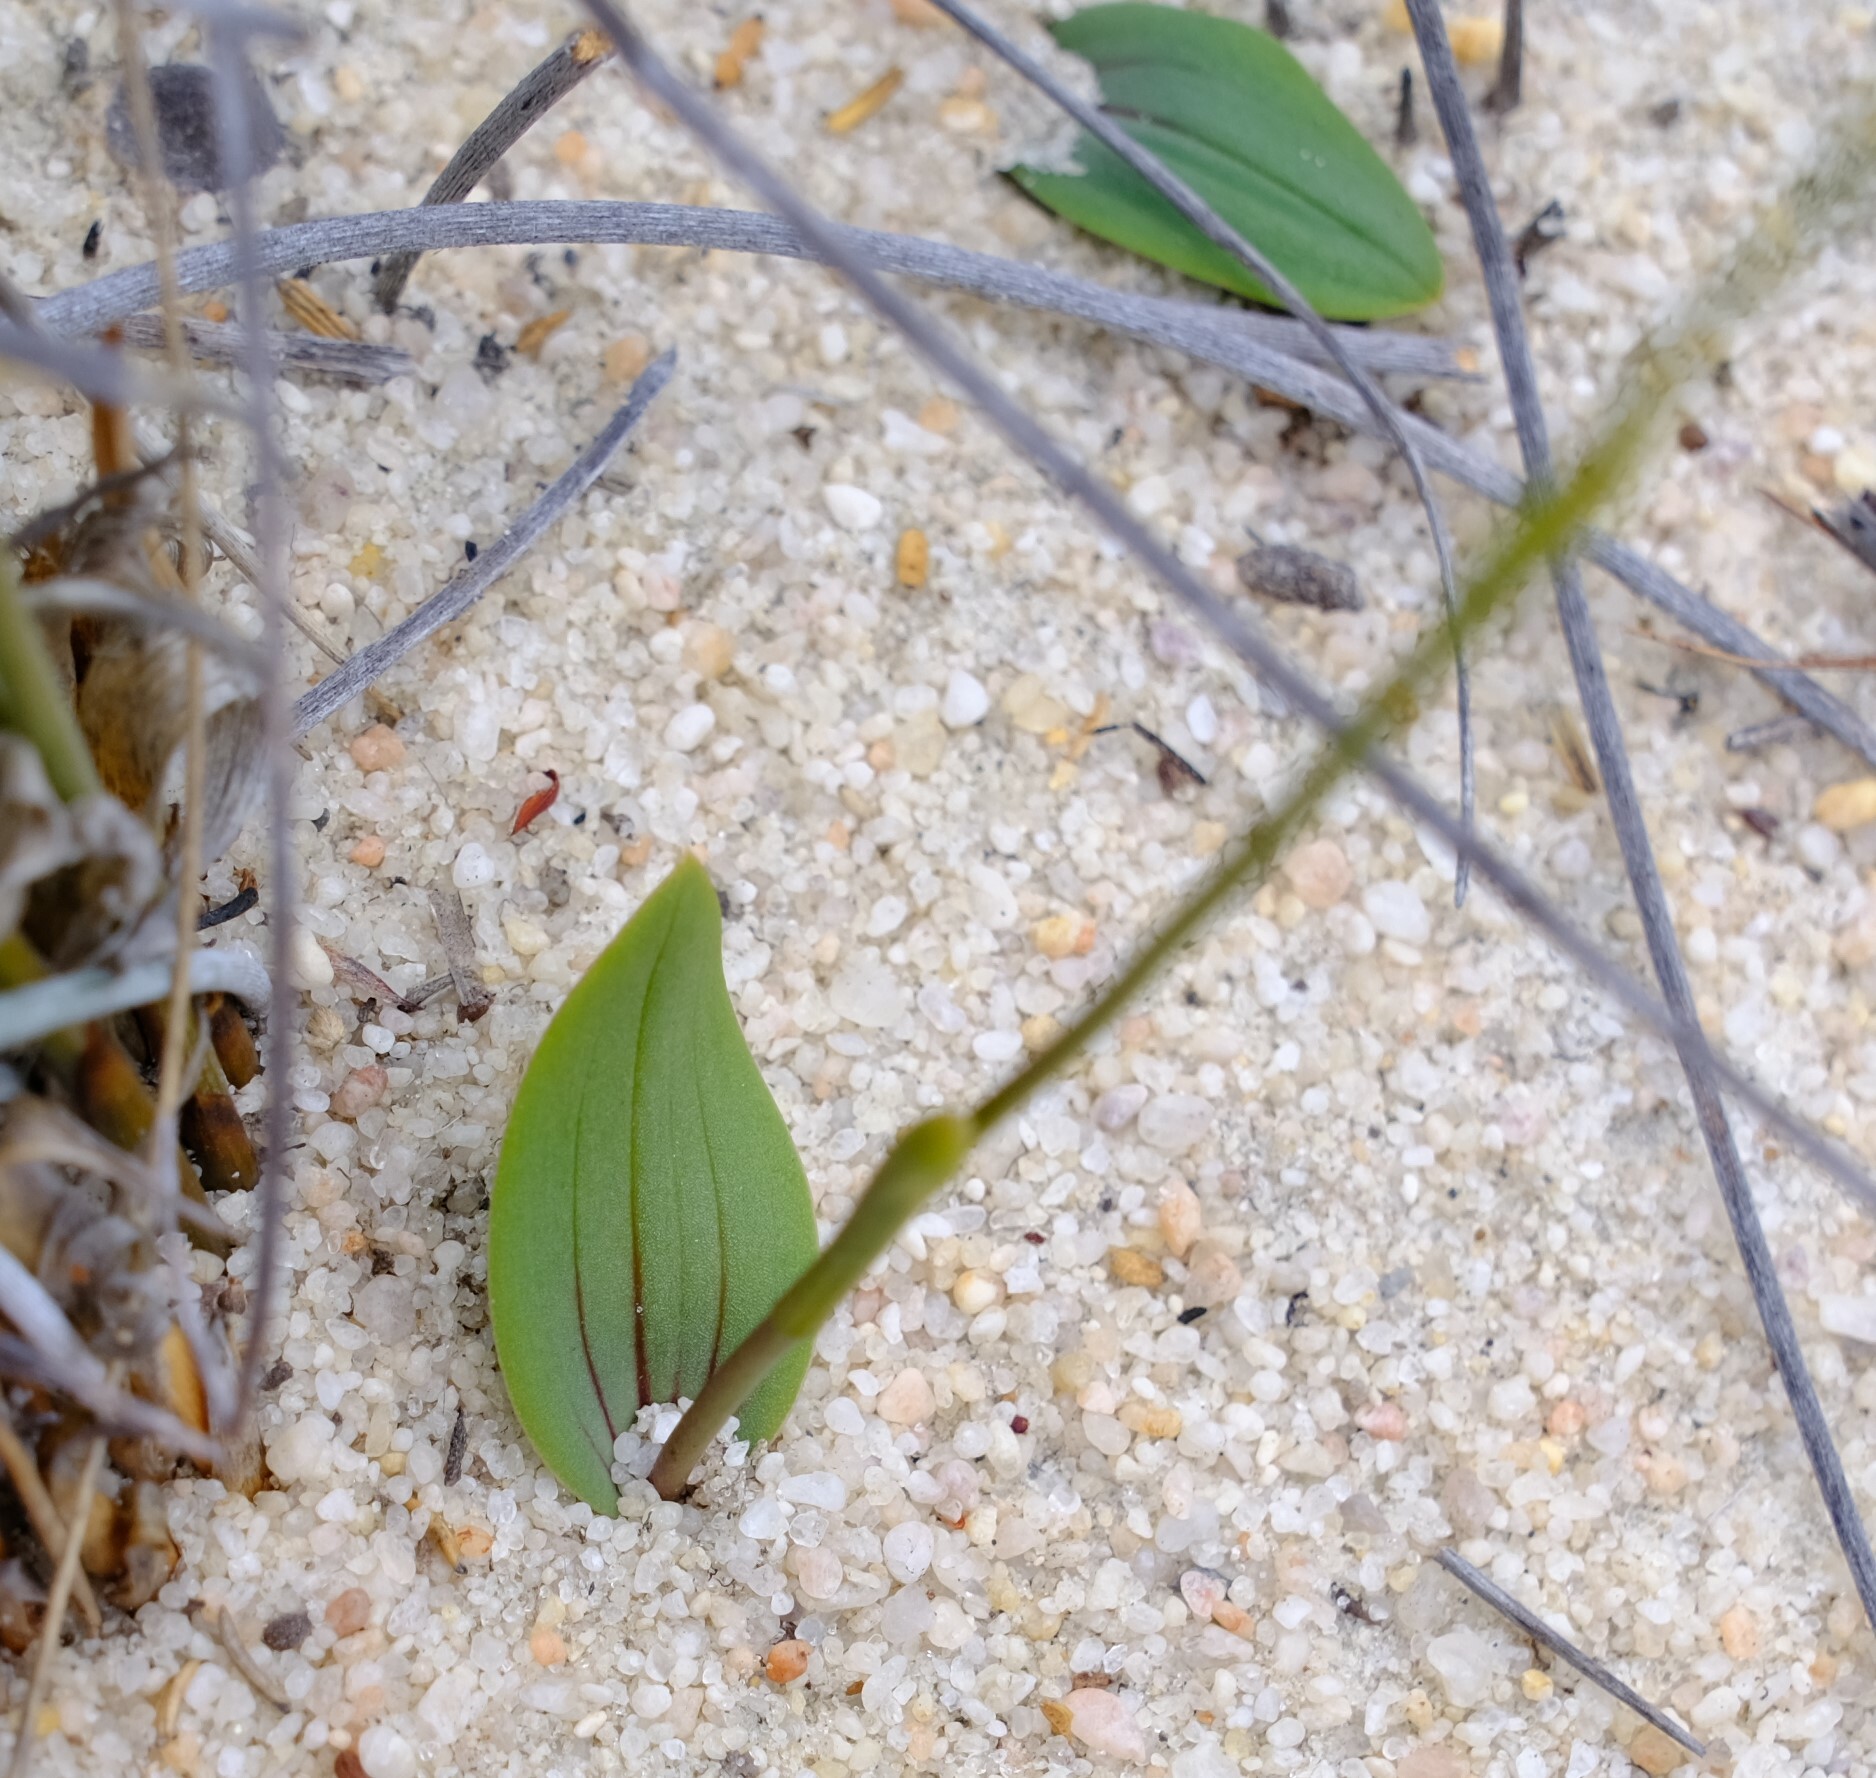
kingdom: Plantae
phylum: Tracheophyta
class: Liliopsida
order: Asparagales
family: Orchidaceae
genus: Leporella
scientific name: Leporella fimbriata
